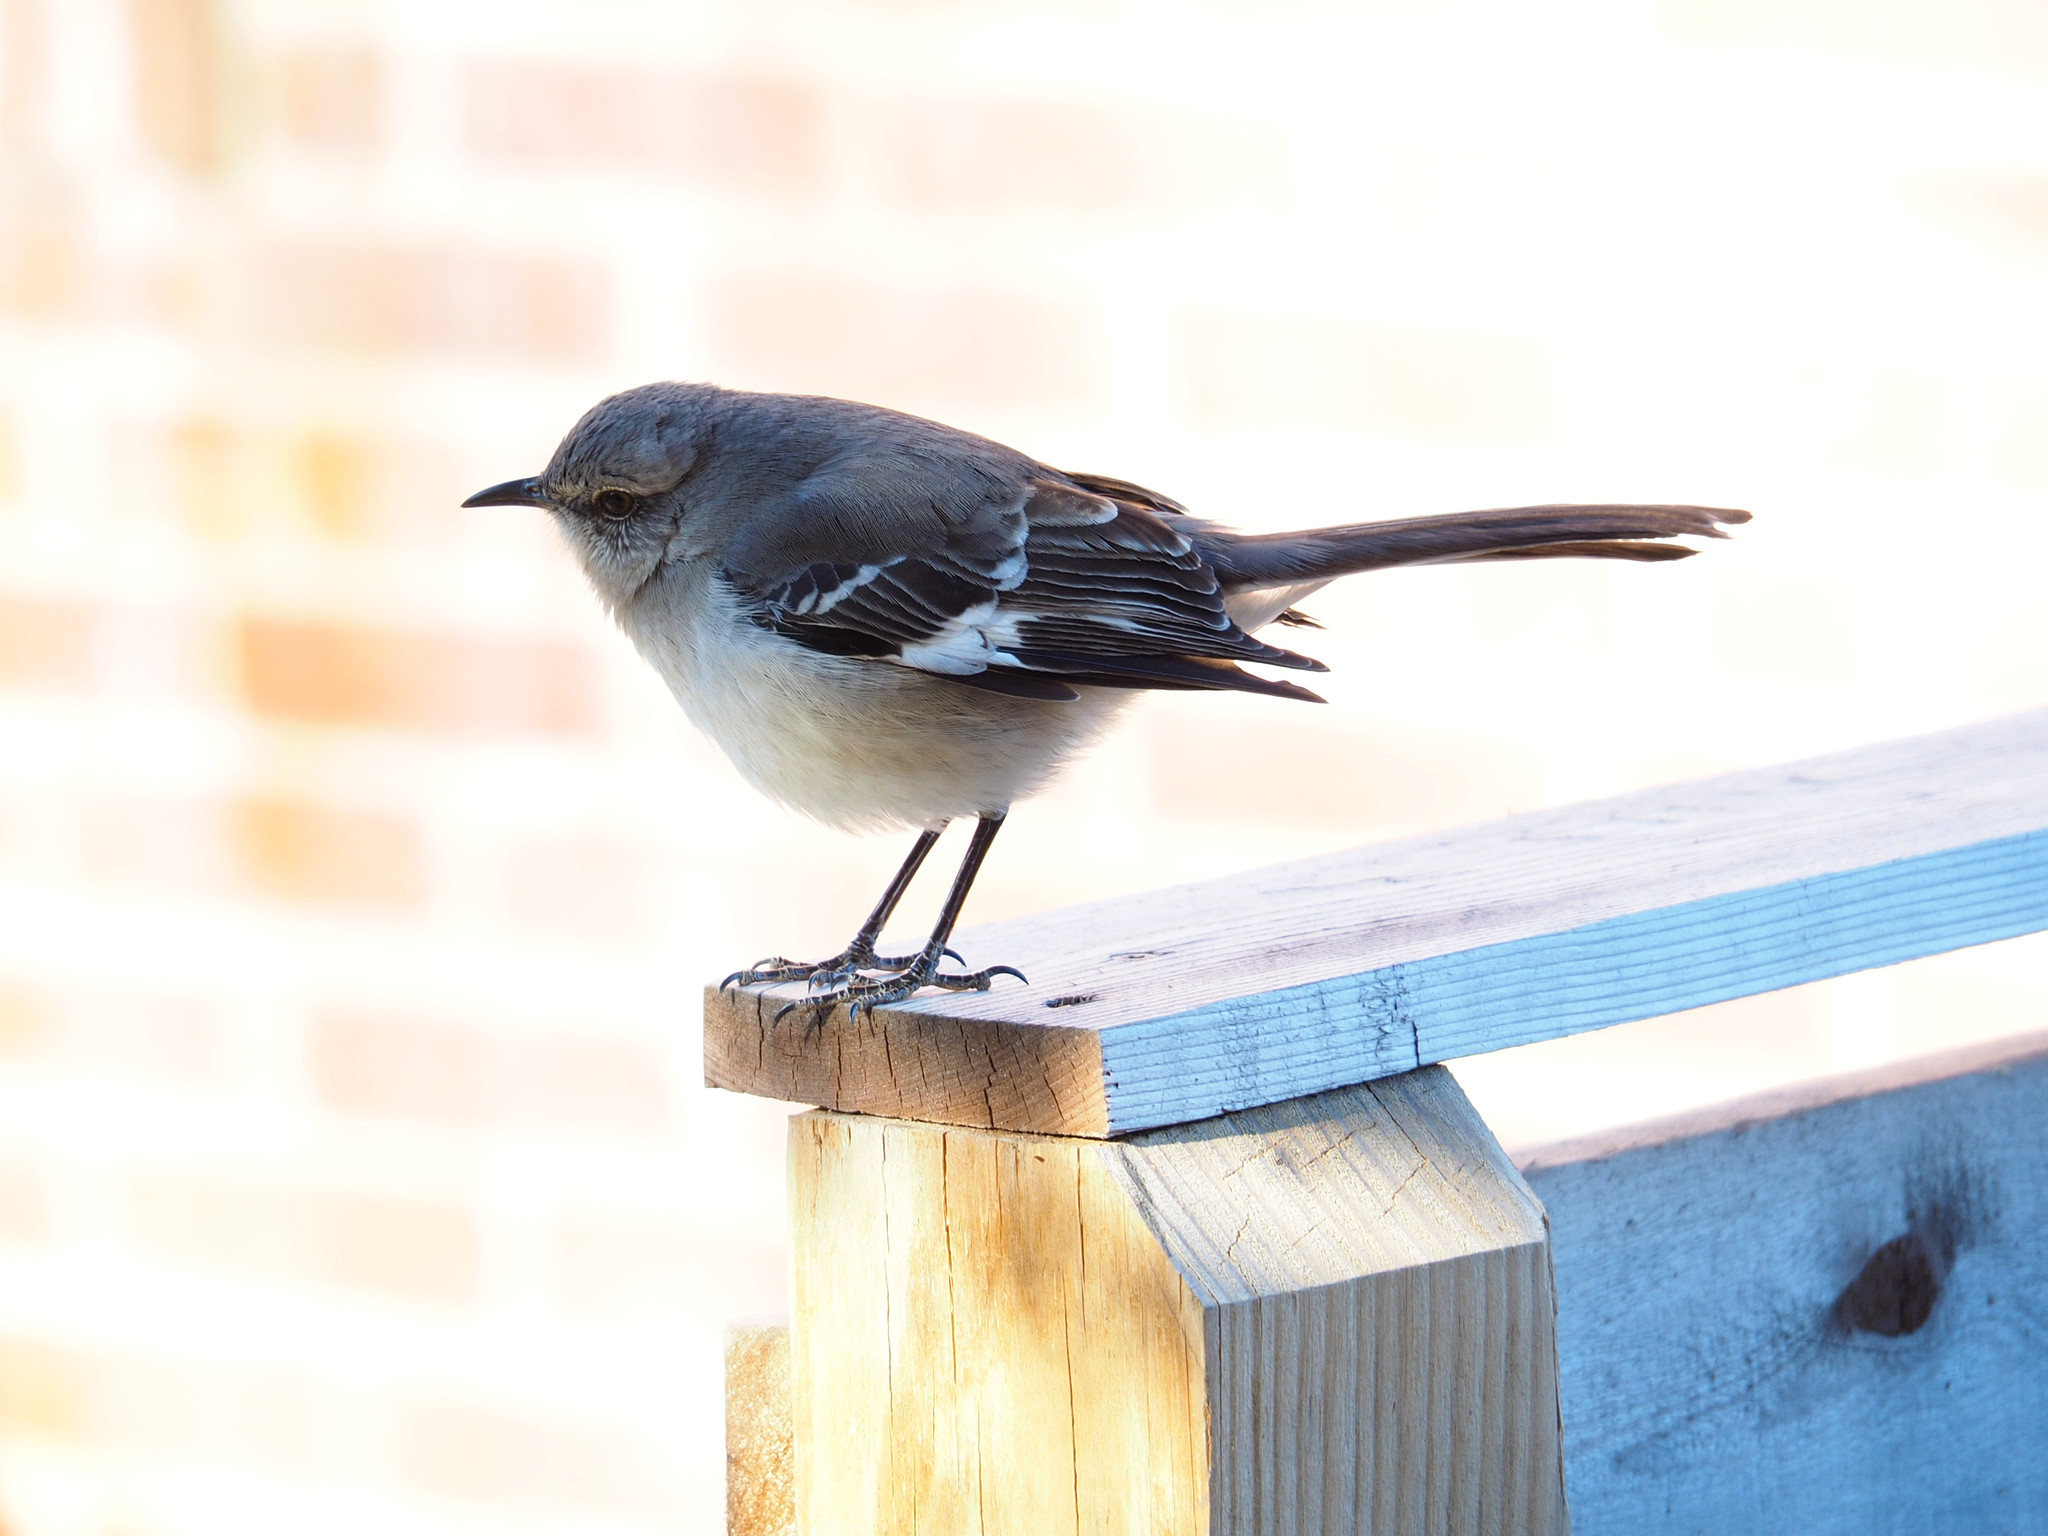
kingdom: Animalia
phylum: Chordata
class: Aves
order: Passeriformes
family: Mimidae
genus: Mimus
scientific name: Mimus polyglottos
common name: Northern mockingbird
